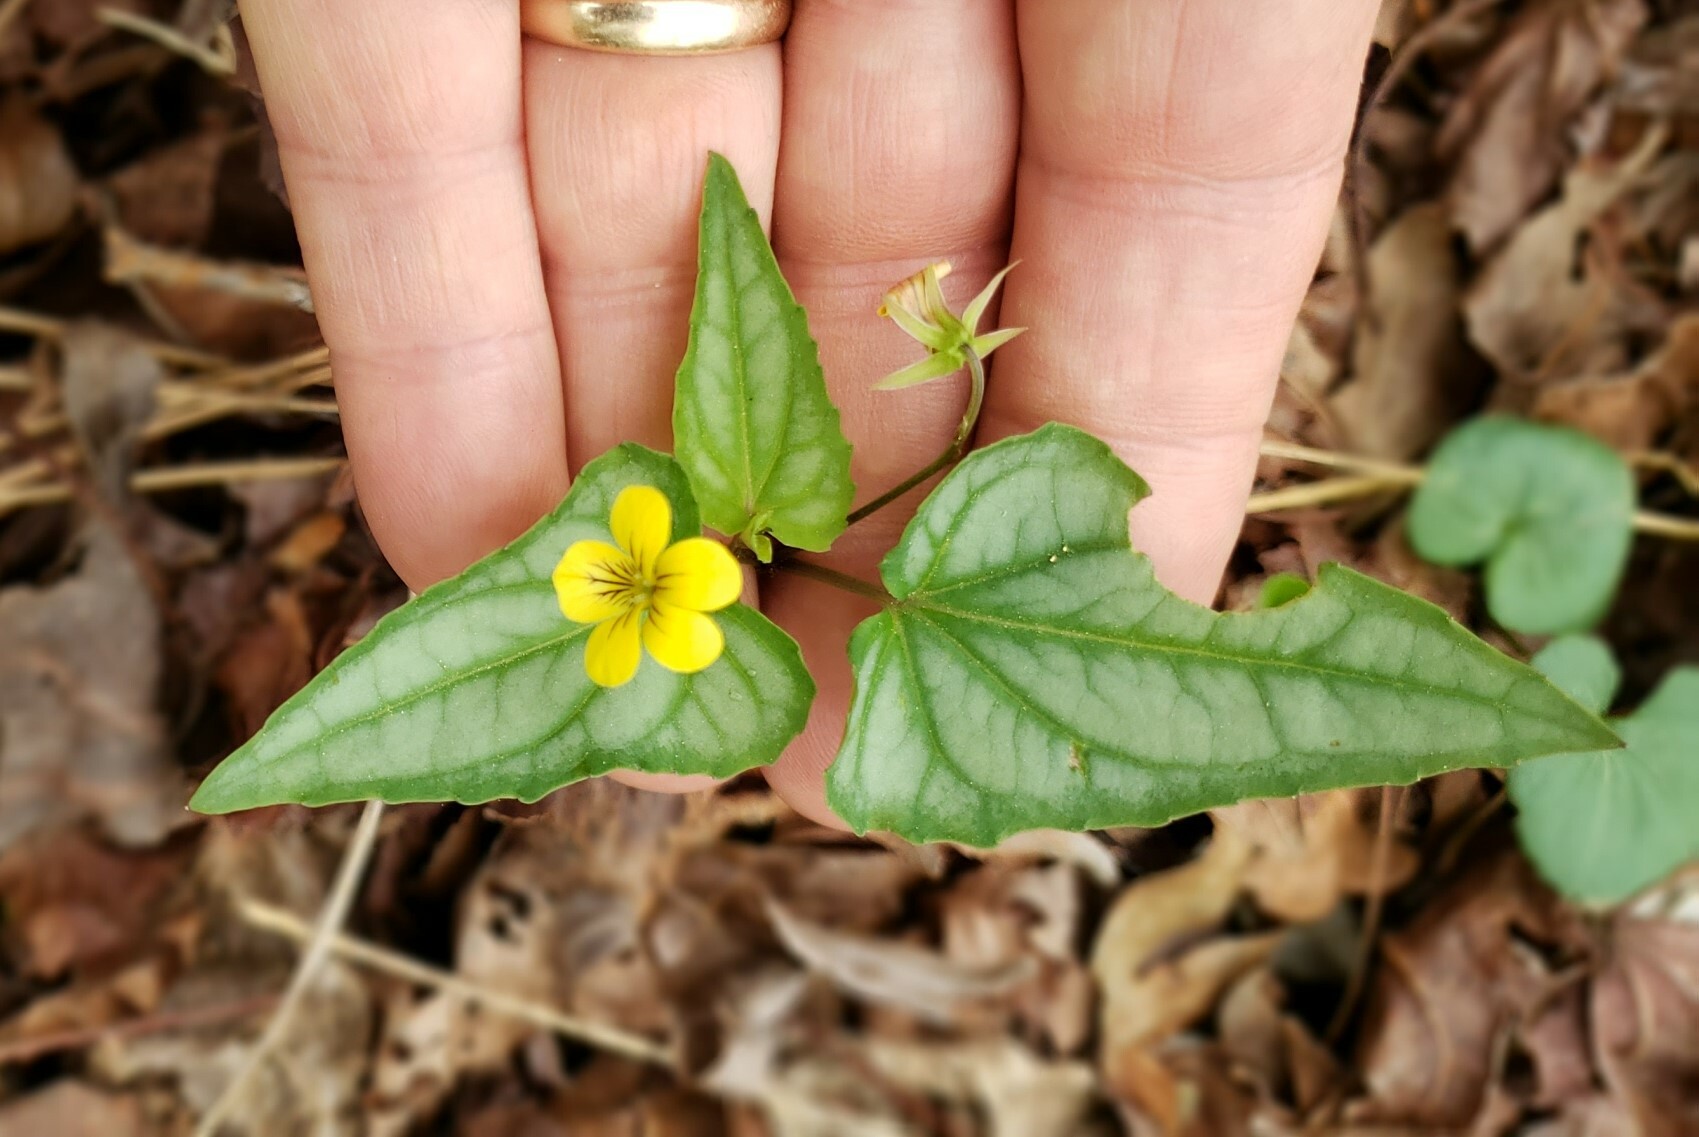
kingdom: Plantae
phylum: Tracheophyta
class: Magnoliopsida
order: Malpighiales
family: Violaceae
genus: Viola
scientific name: Viola hastata
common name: Spear-leaf violet
